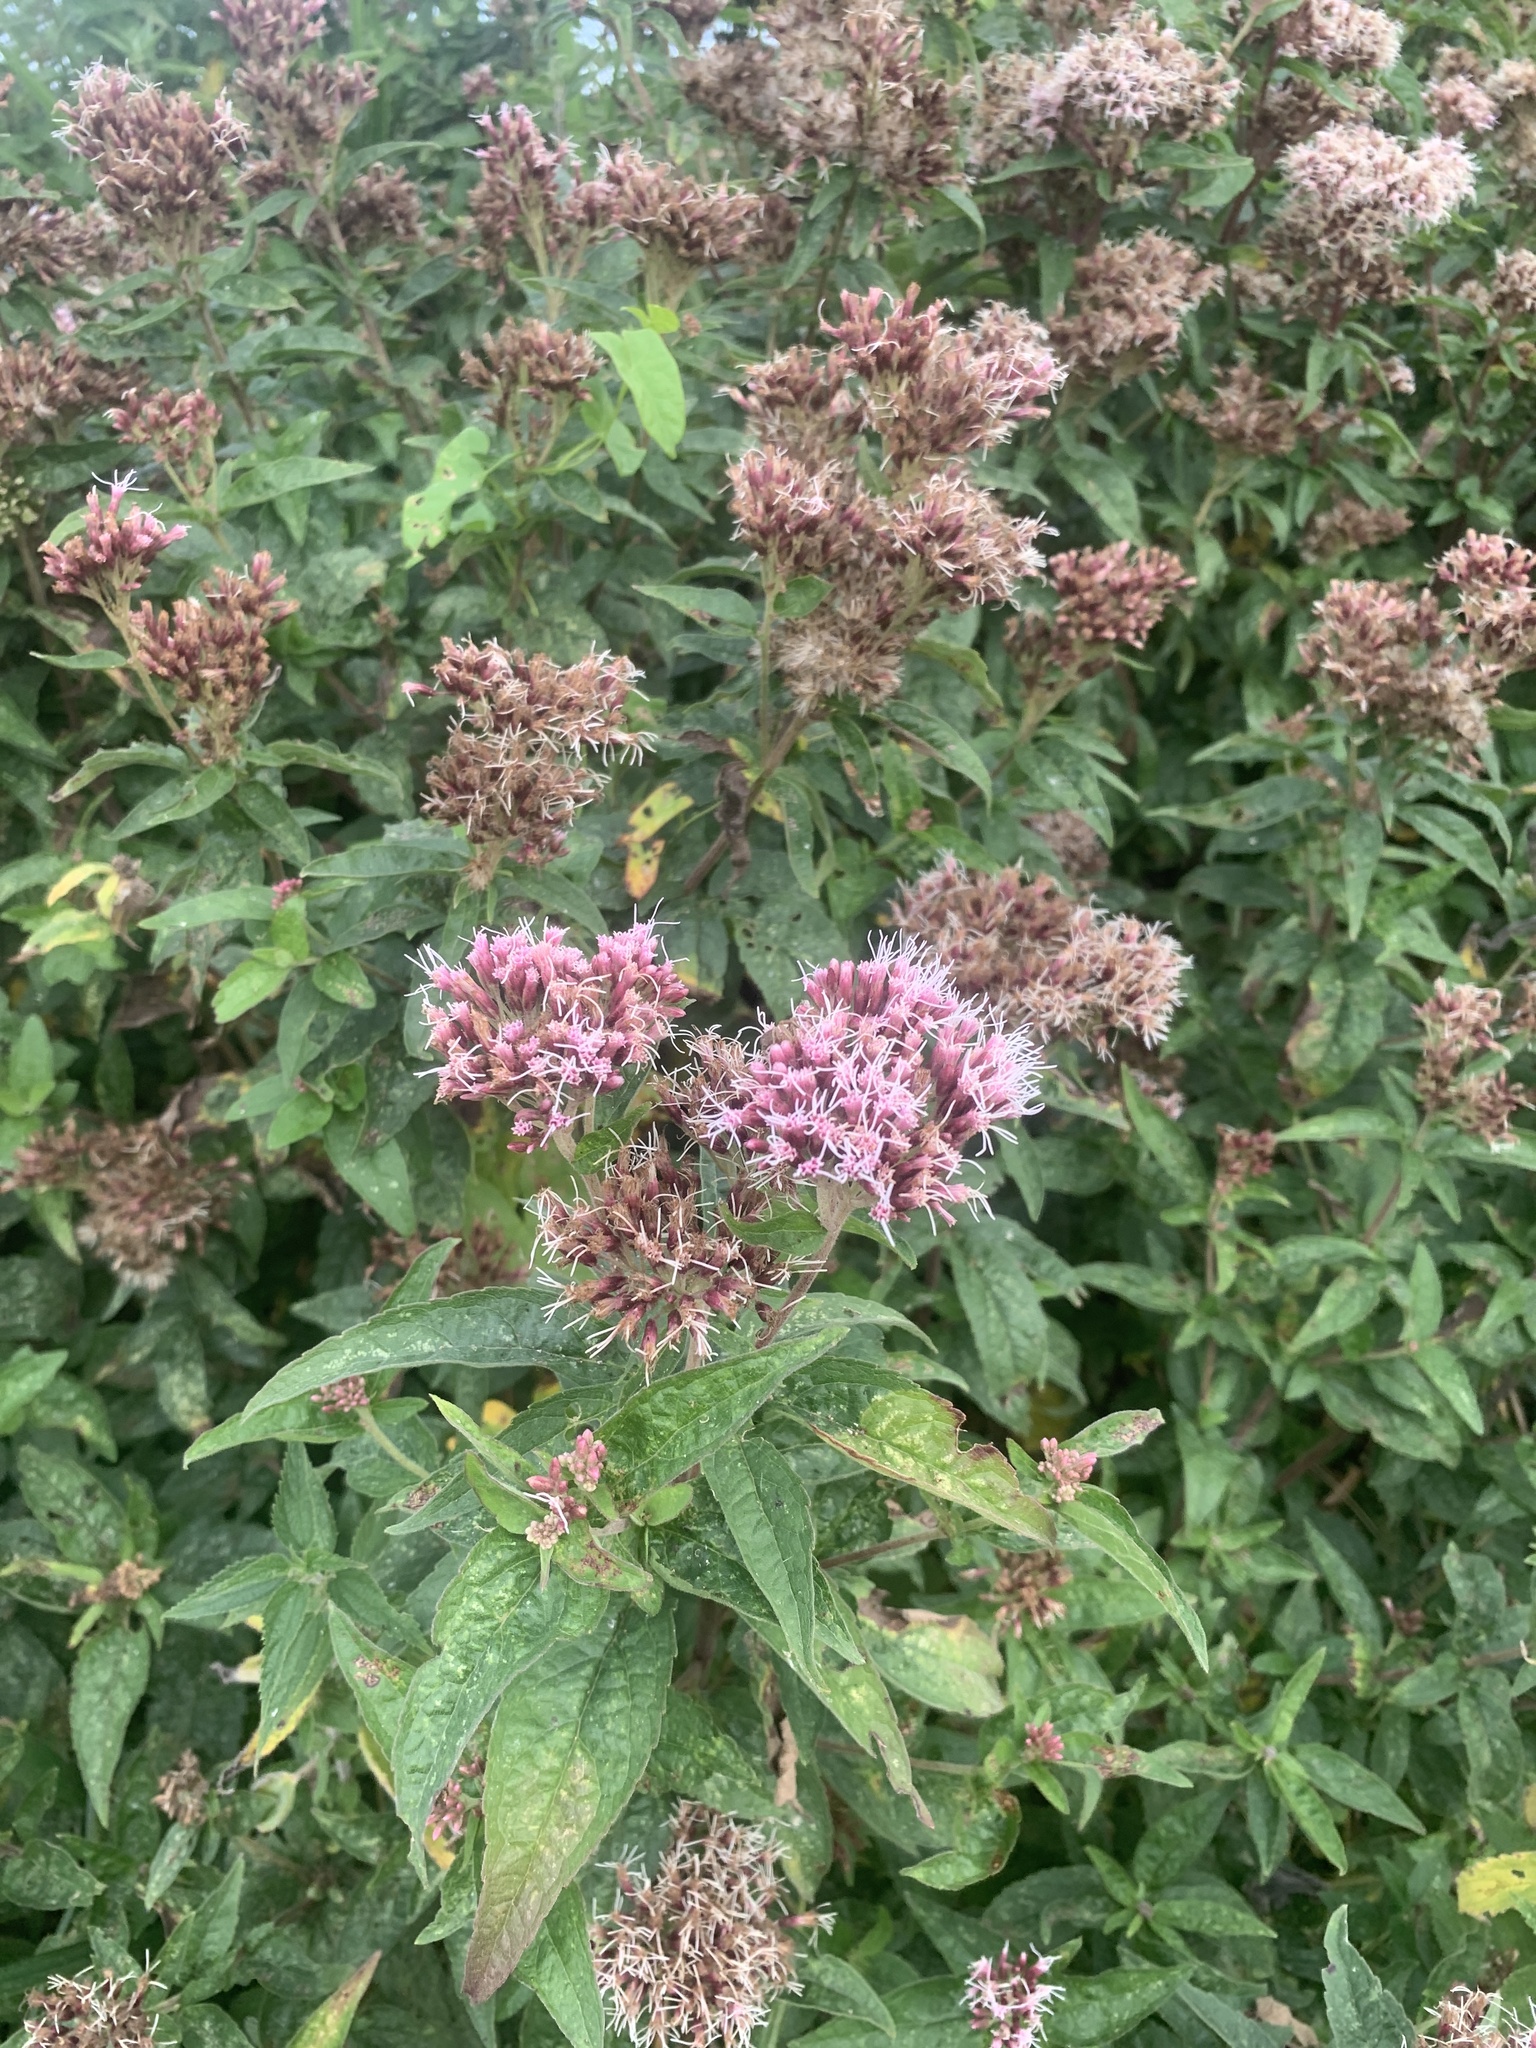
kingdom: Plantae
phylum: Tracheophyta
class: Magnoliopsida
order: Asterales
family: Asteraceae
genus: Eupatorium
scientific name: Eupatorium cannabinum
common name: Hemp-agrimony
